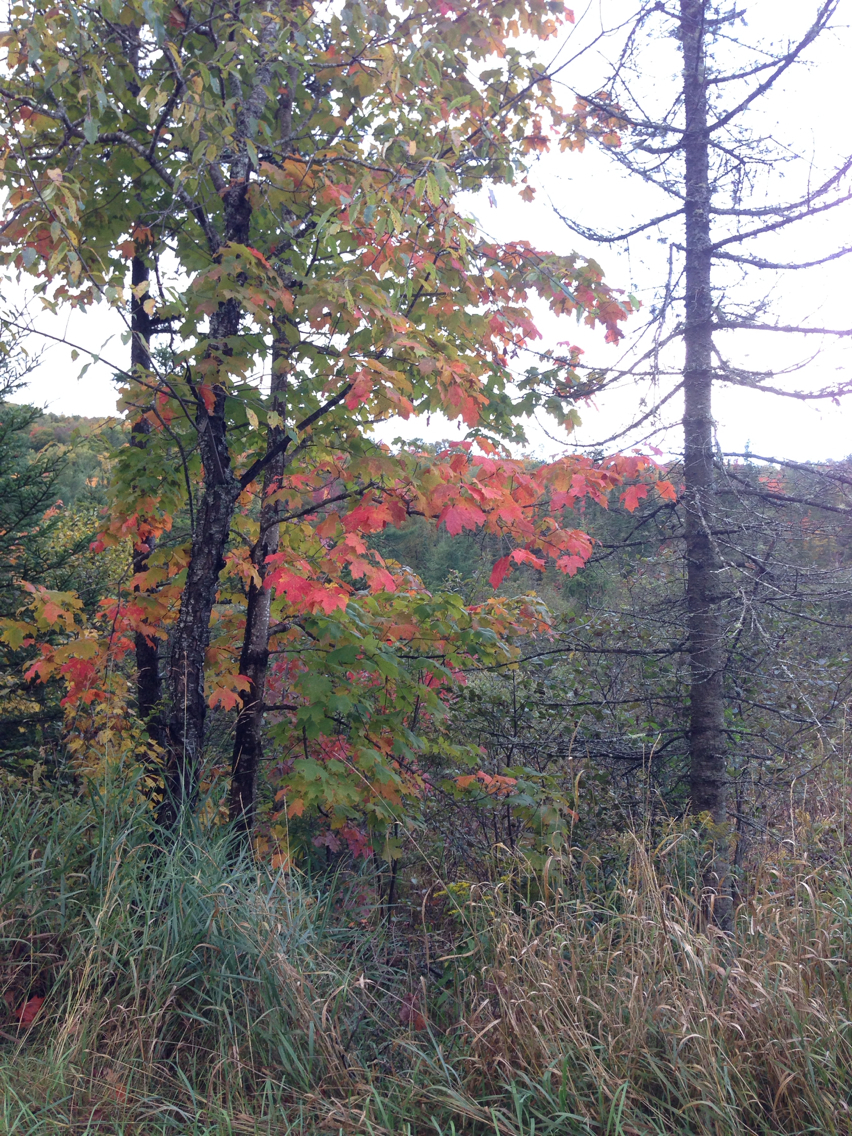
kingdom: Plantae
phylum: Tracheophyta
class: Magnoliopsida
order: Sapindales
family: Sapindaceae
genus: Acer
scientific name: Acer saccharum
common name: Sugar maple
